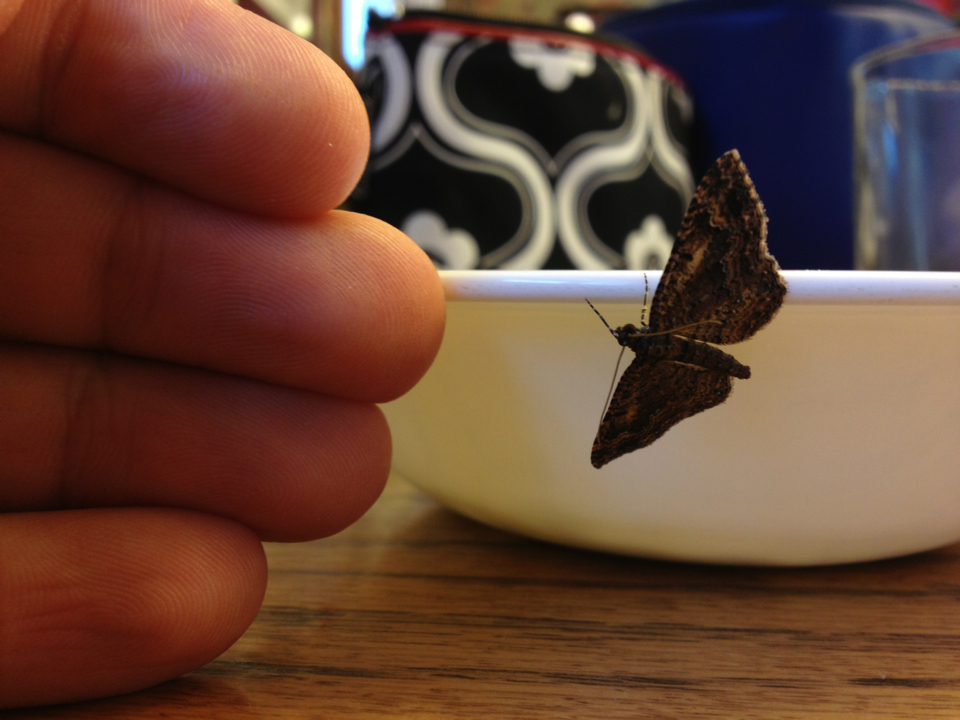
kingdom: Animalia
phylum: Arthropoda
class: Insecta
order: Lepidoptera
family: Geometridae
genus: Disclisioprocta
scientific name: Disclisioprocta stellata
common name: Somber carpet
